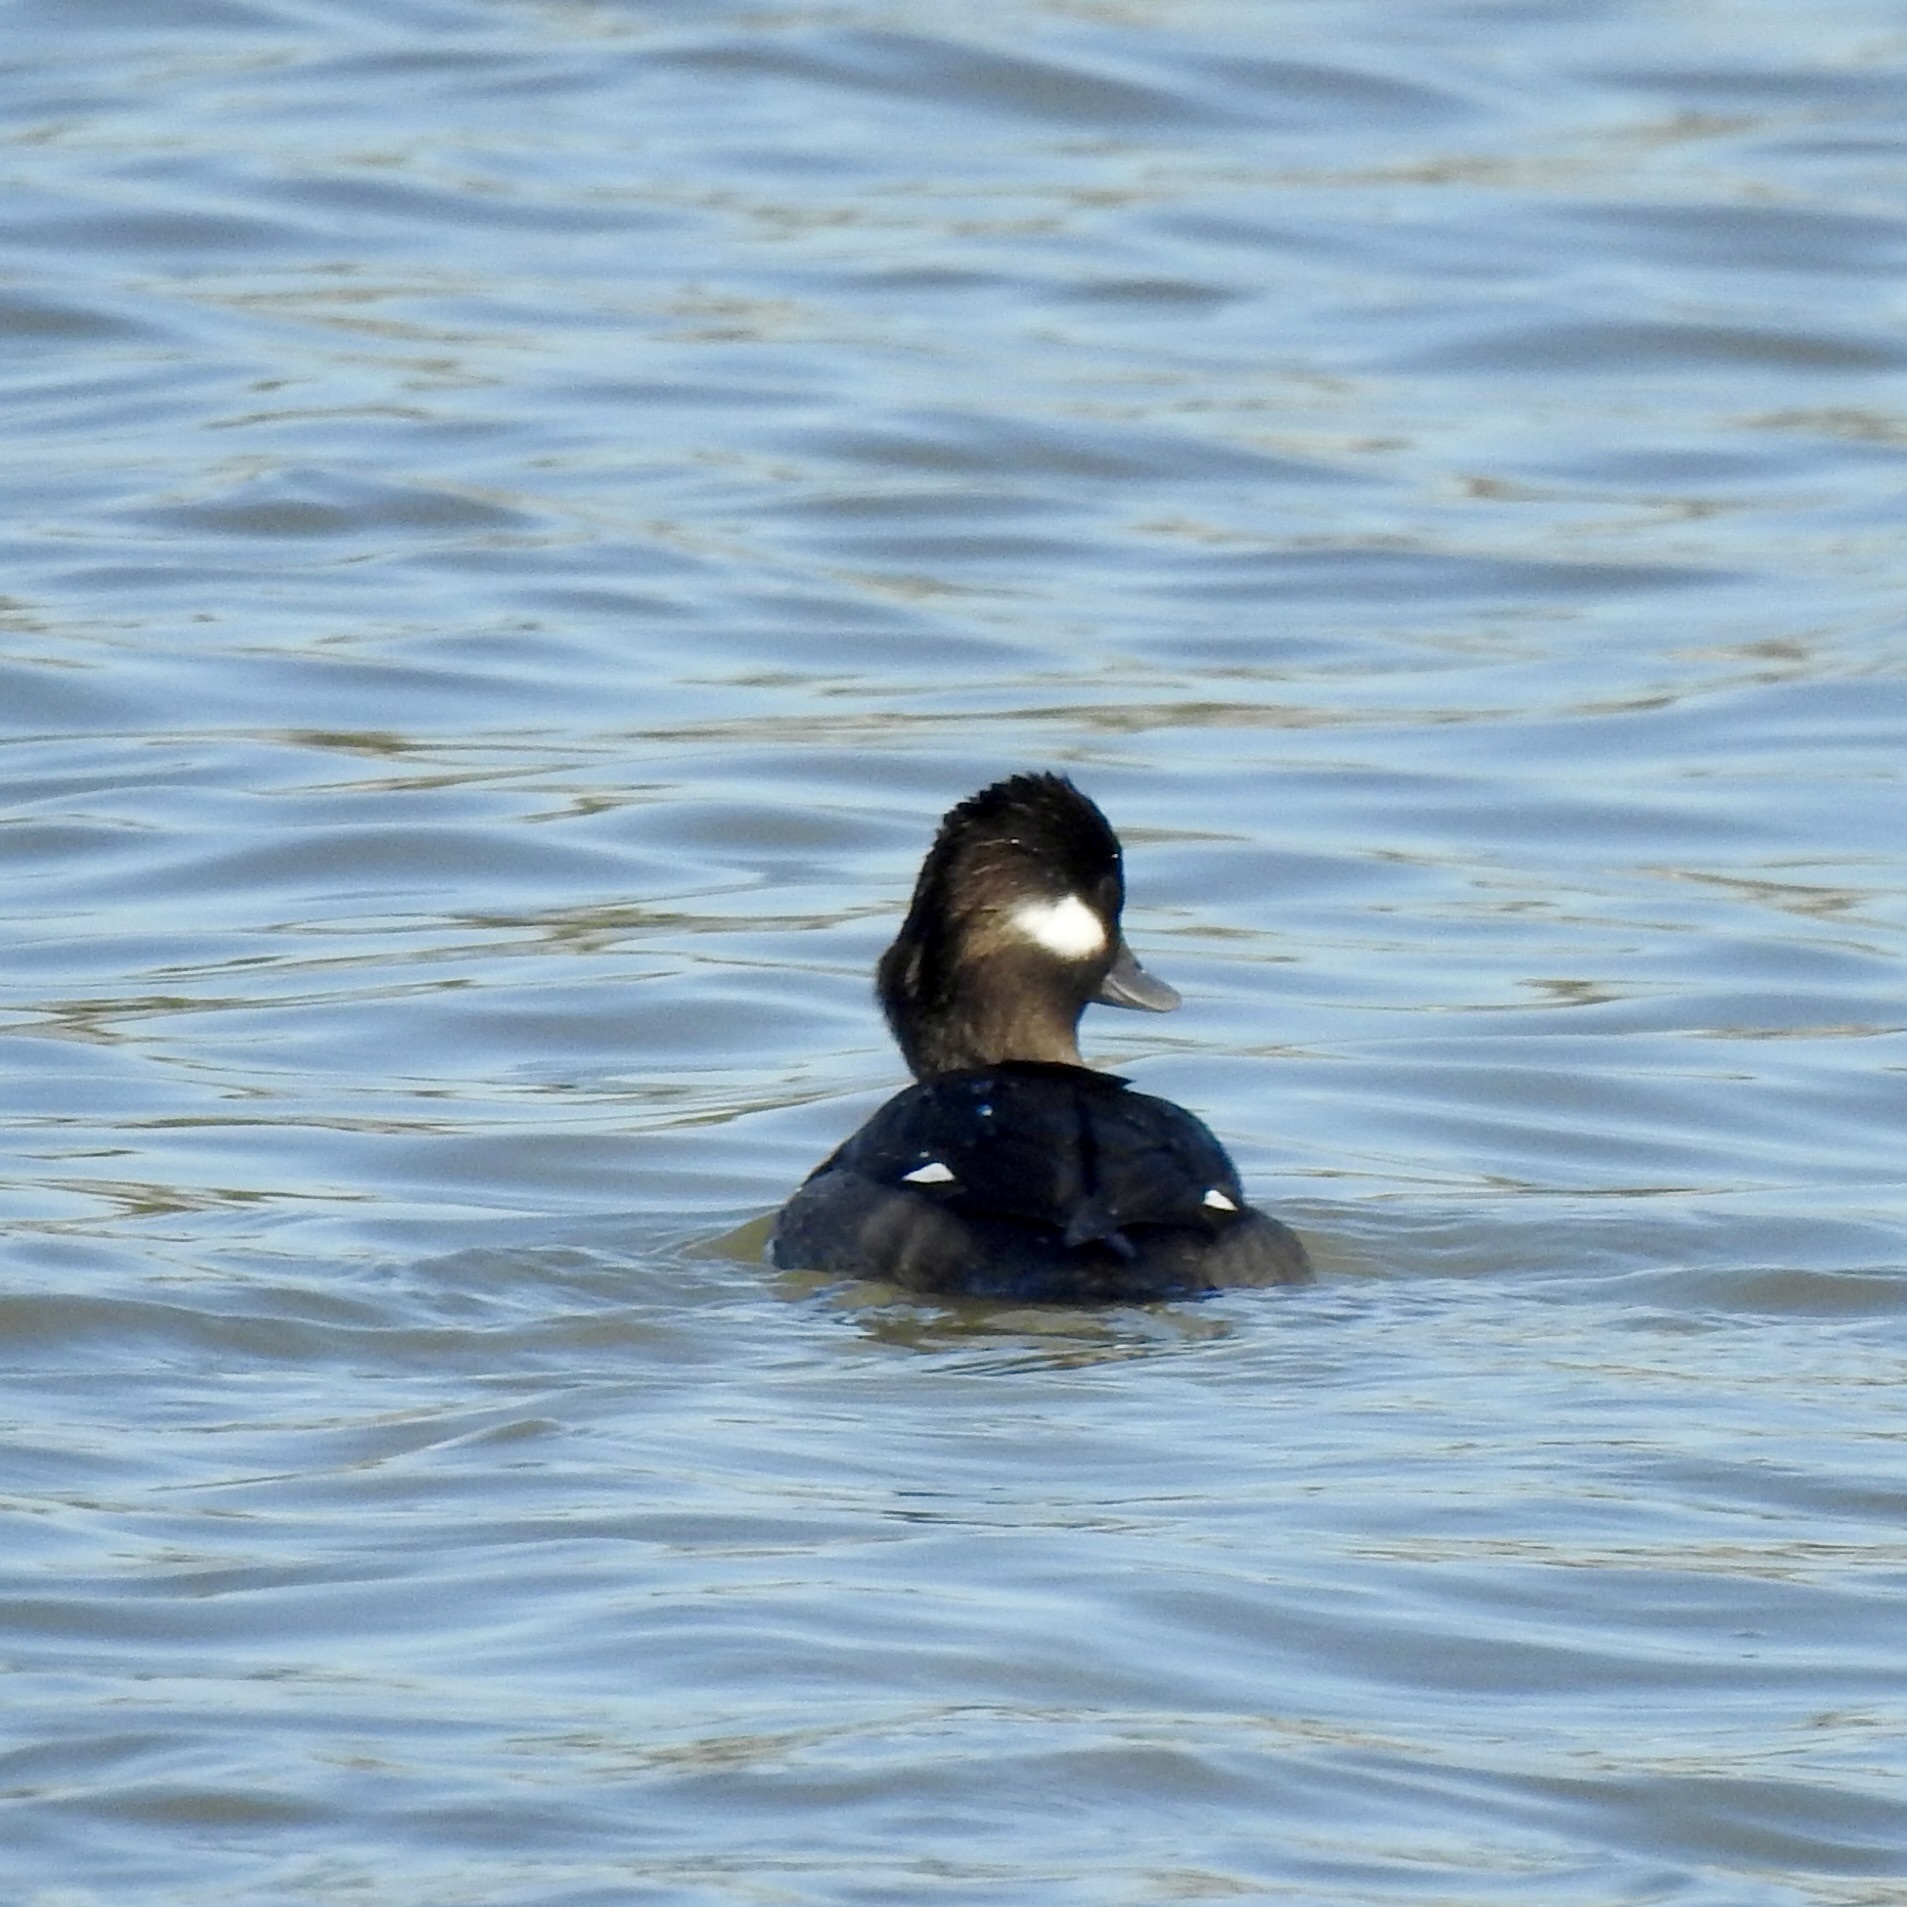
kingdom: Animalia
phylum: Chordata
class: Aves
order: Anseriformes
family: Anatidae
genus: Bucephala
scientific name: Bucephala albeola
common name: Bufflehead
